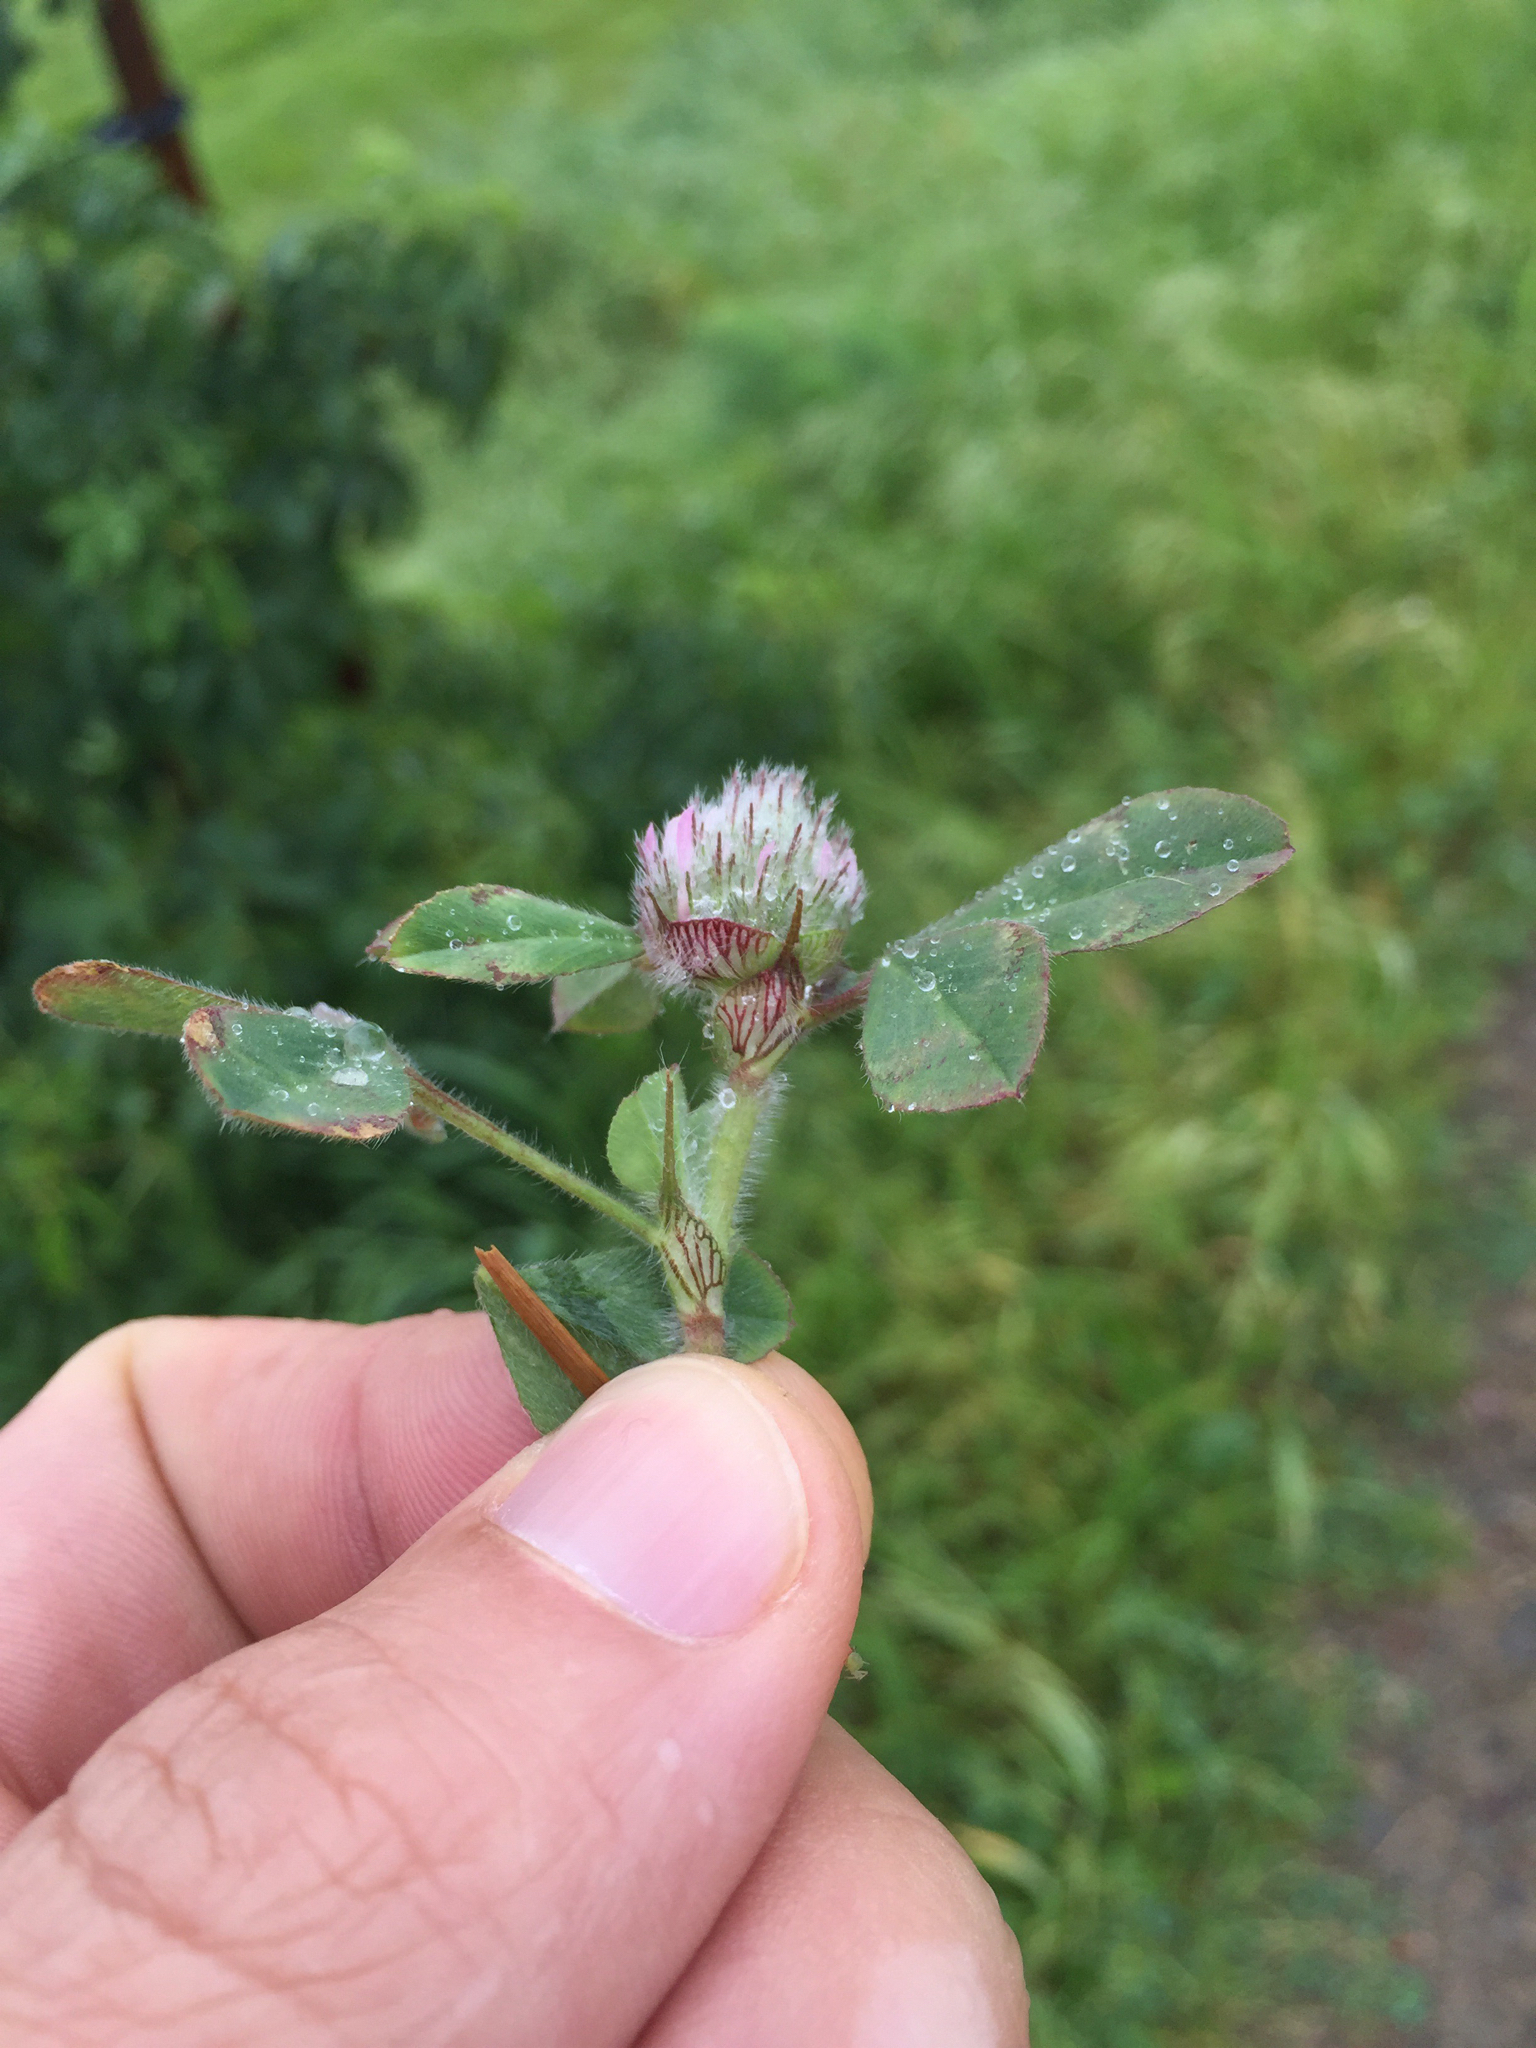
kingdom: Plantae
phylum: Tracheophyta
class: Magnoliopsida
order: Fabales
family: Fabaceae
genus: Trifolium
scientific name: Trifolium hirtum
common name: Rose clover
